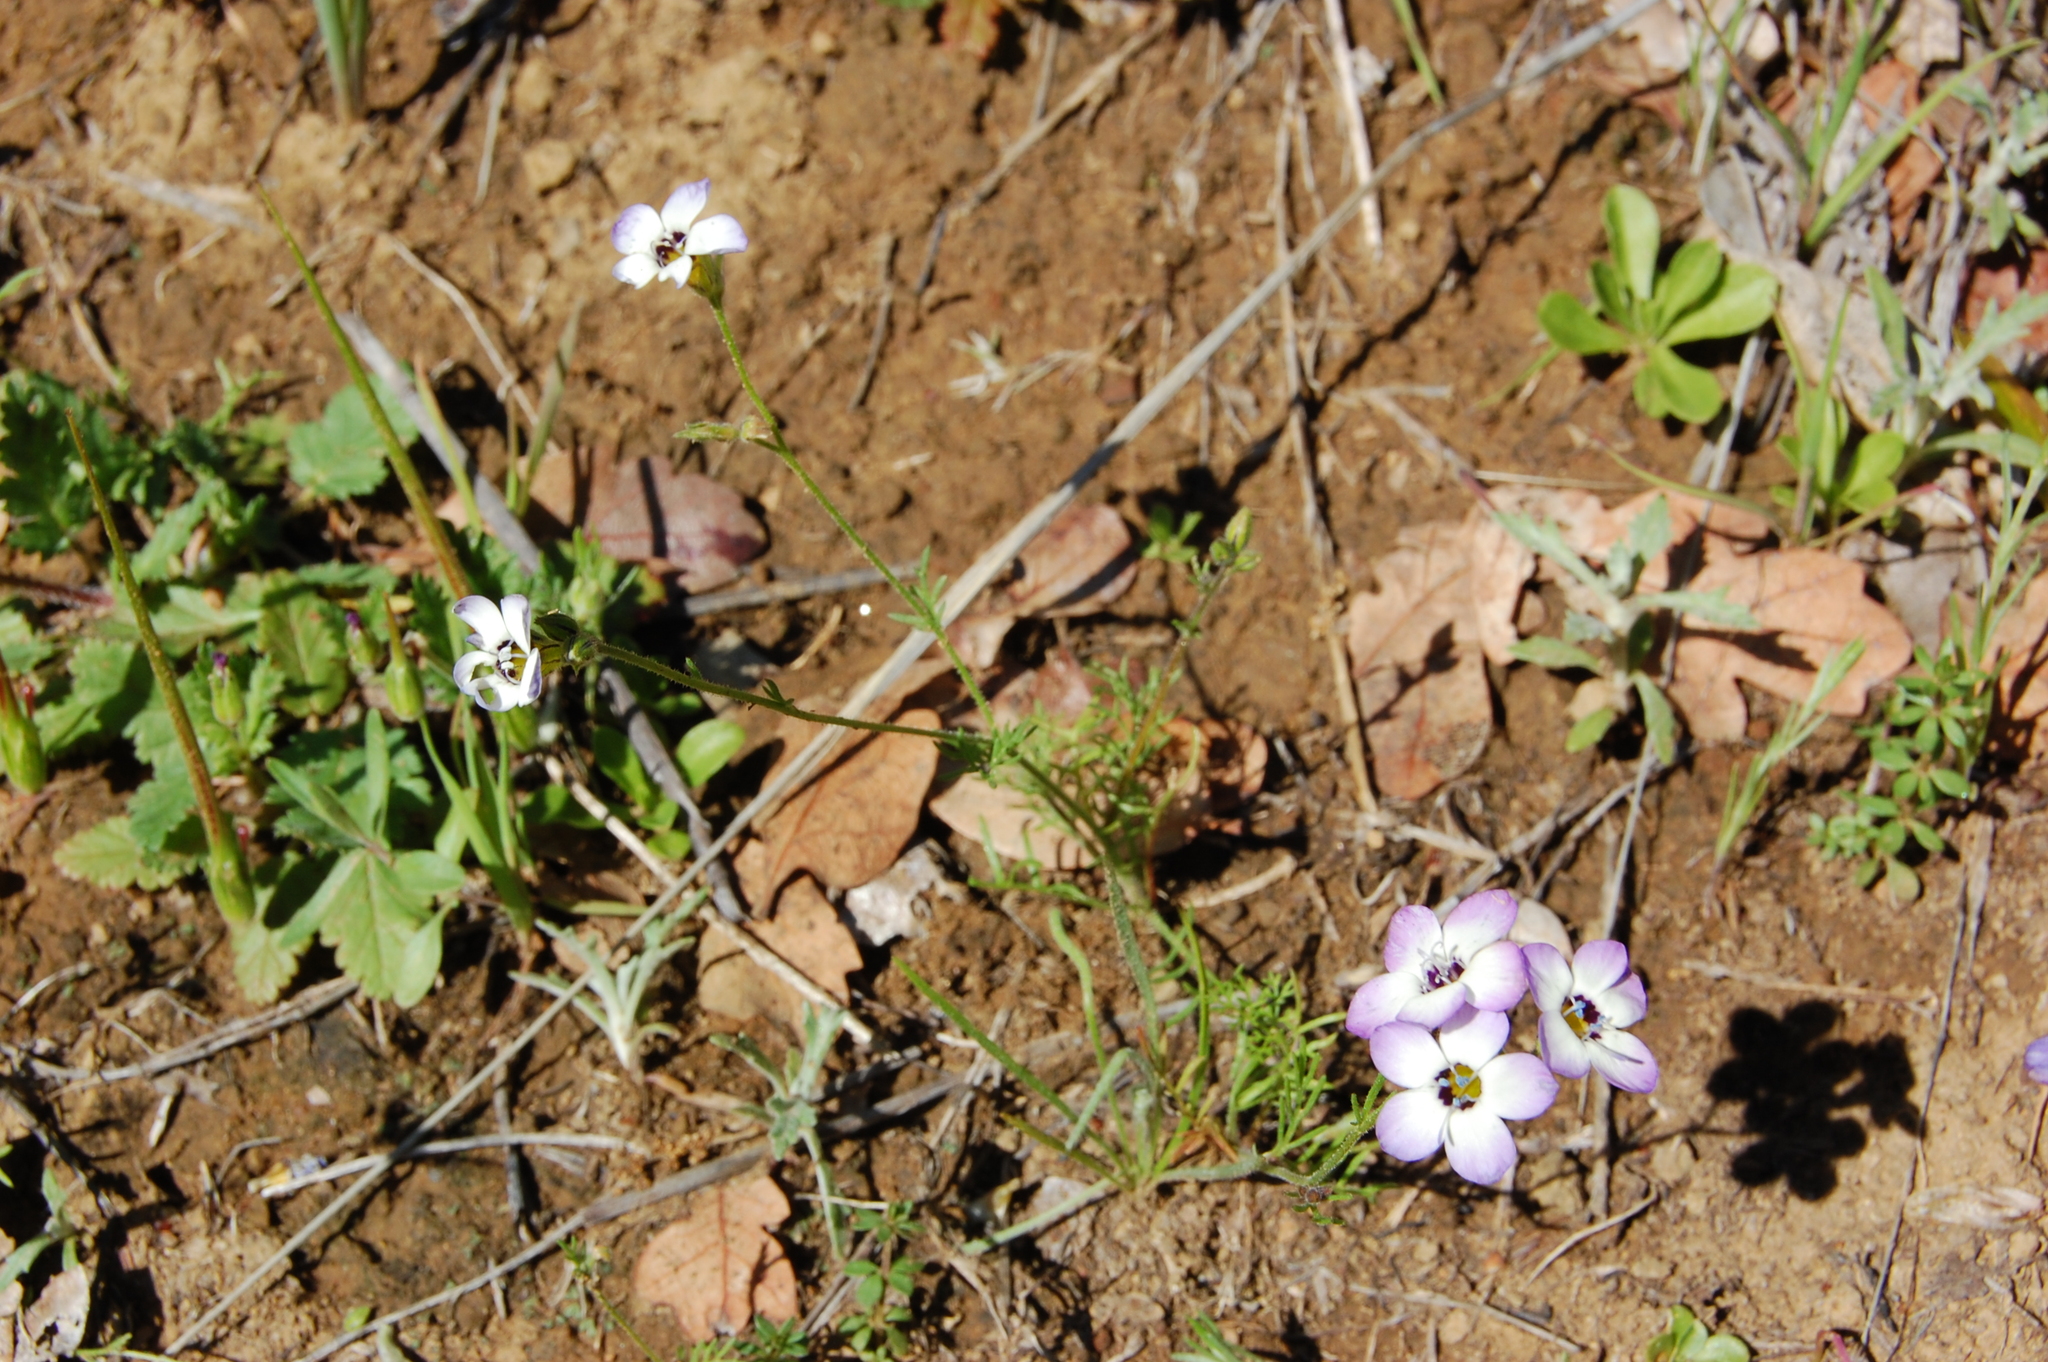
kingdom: Plantae
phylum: Tracheophyta
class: Magnoliopsida
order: Ericales
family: Polemoniaceae
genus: Gilia
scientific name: Gilia tricolor
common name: Bird's-eyes
